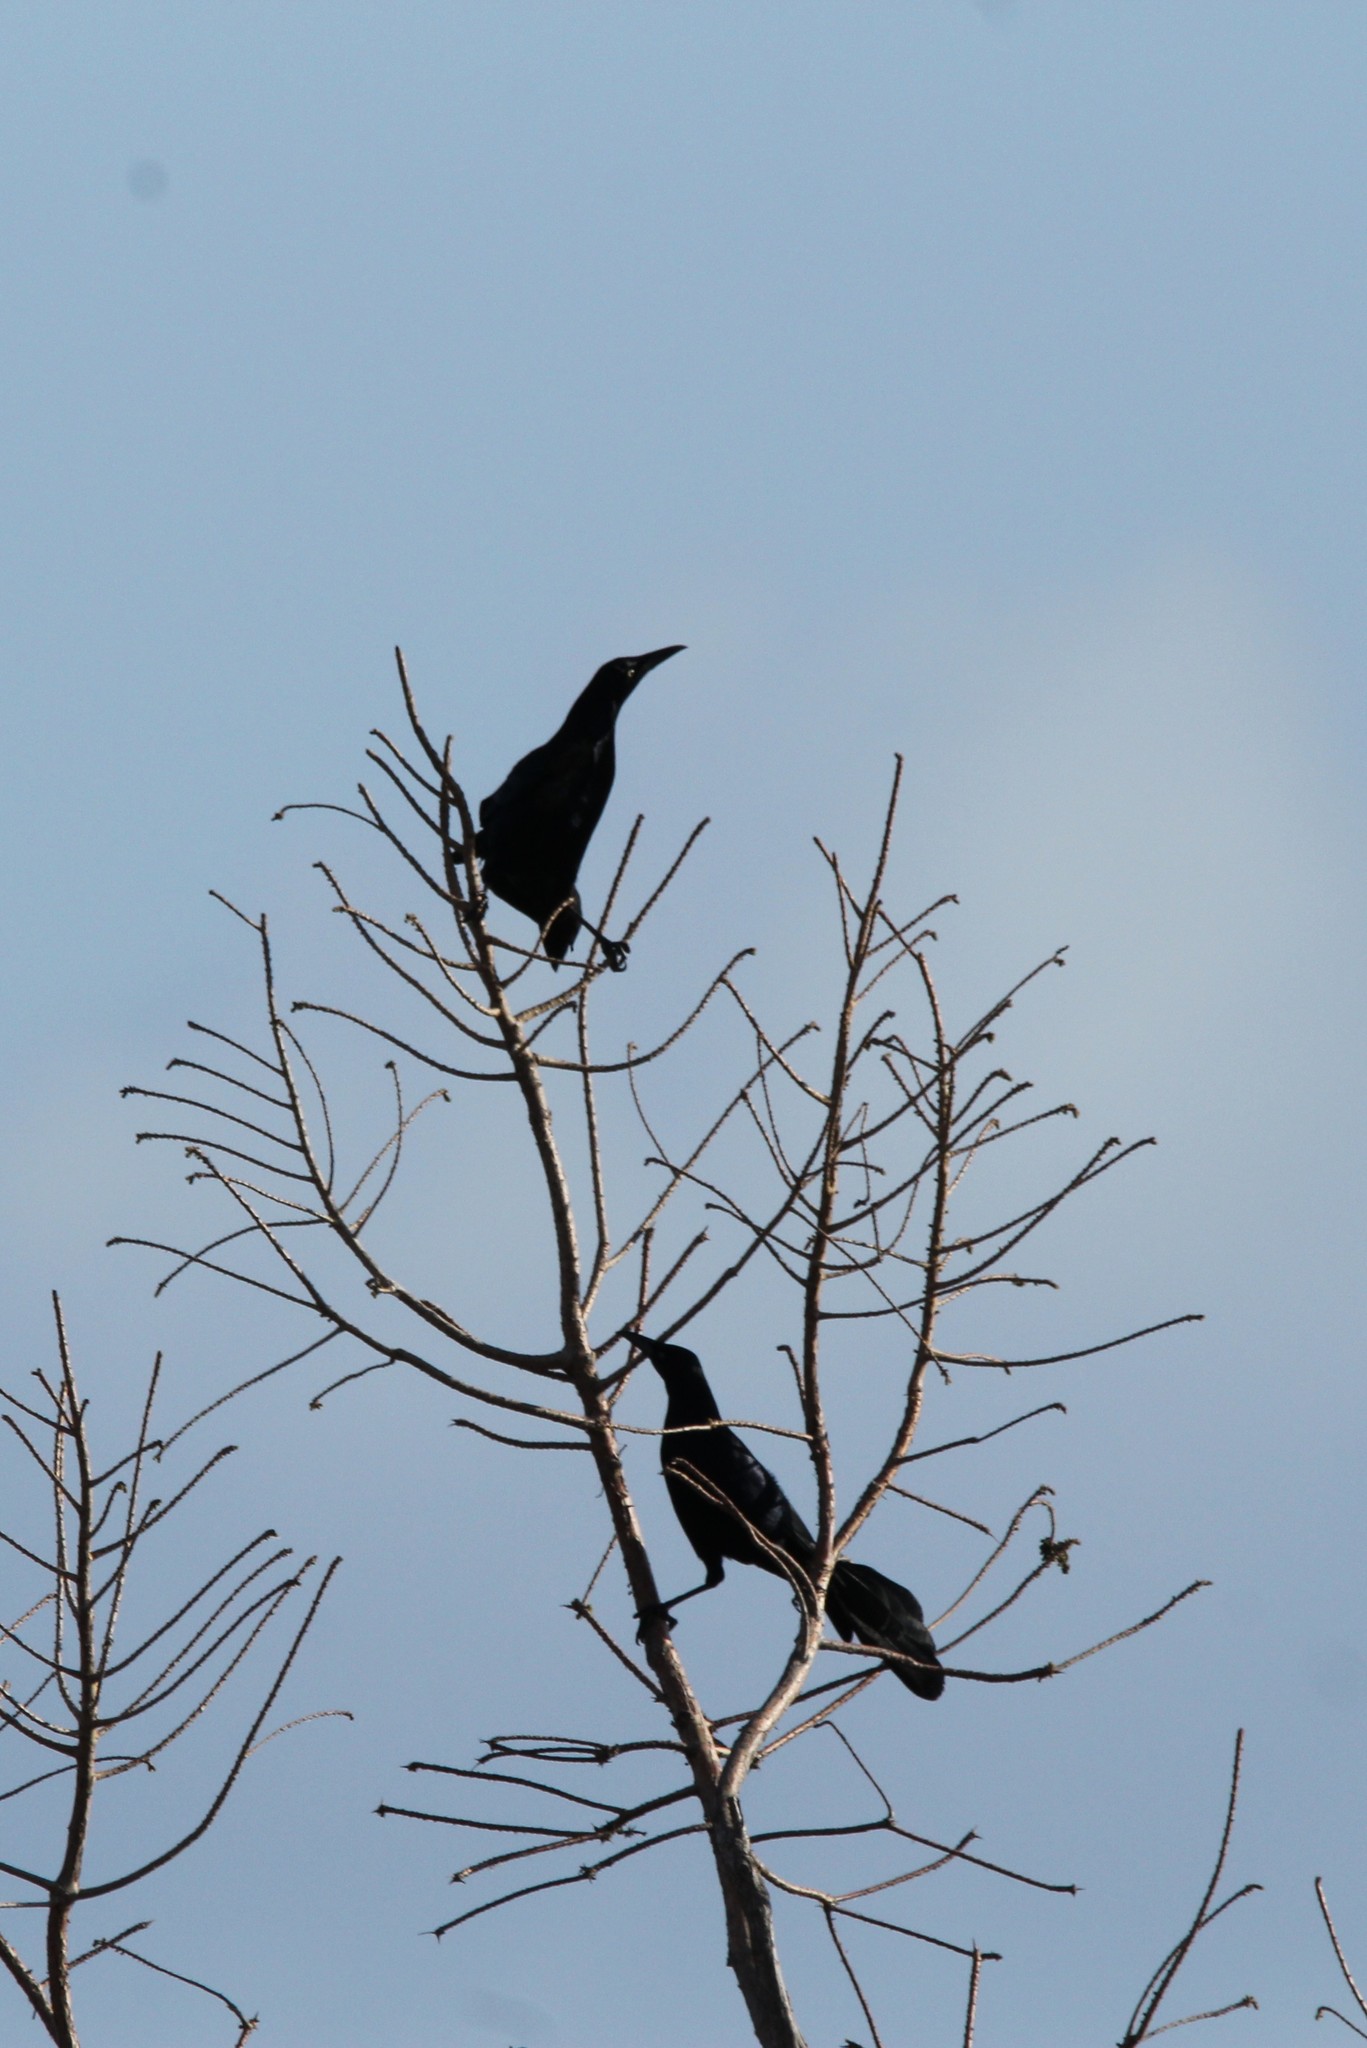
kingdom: Animalia
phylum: Chordata
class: Aves
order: Passeriformes
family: Icteridae
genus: Quiscalus
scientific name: Quiscalus mexicanus
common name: Great-tailed grackle
